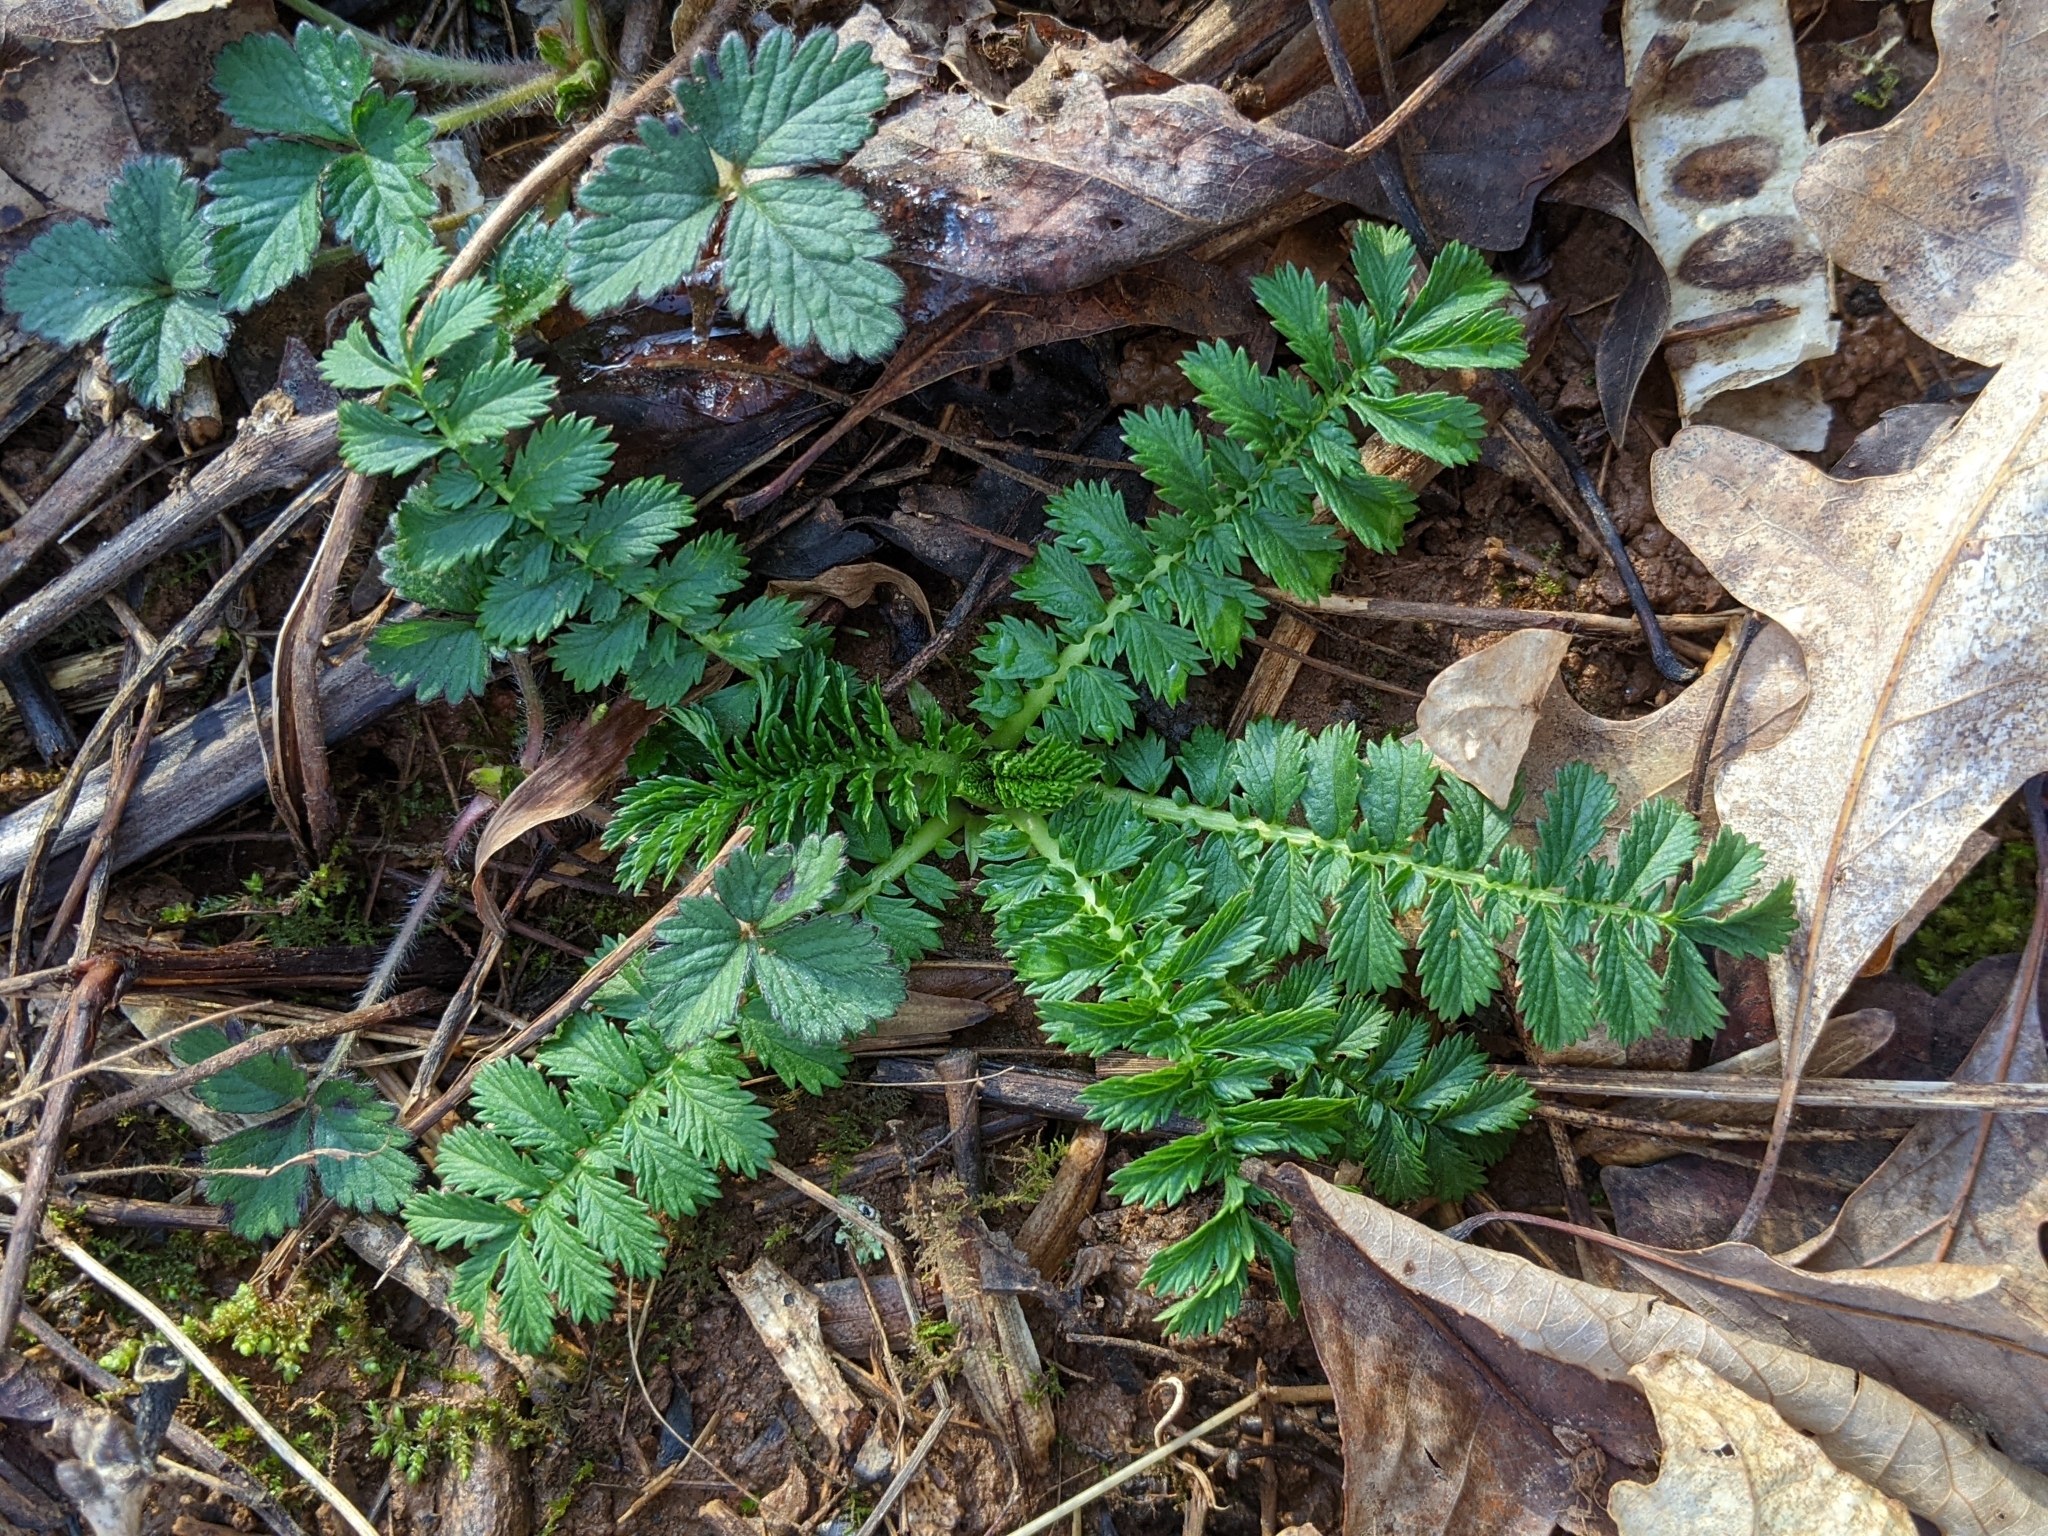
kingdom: Plantae
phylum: Tracheophyta
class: Magnoliopsida
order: Rosales
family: Rosaceae
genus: Agrimonia
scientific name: Agrimonia parviflora
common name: Harvest-lice
